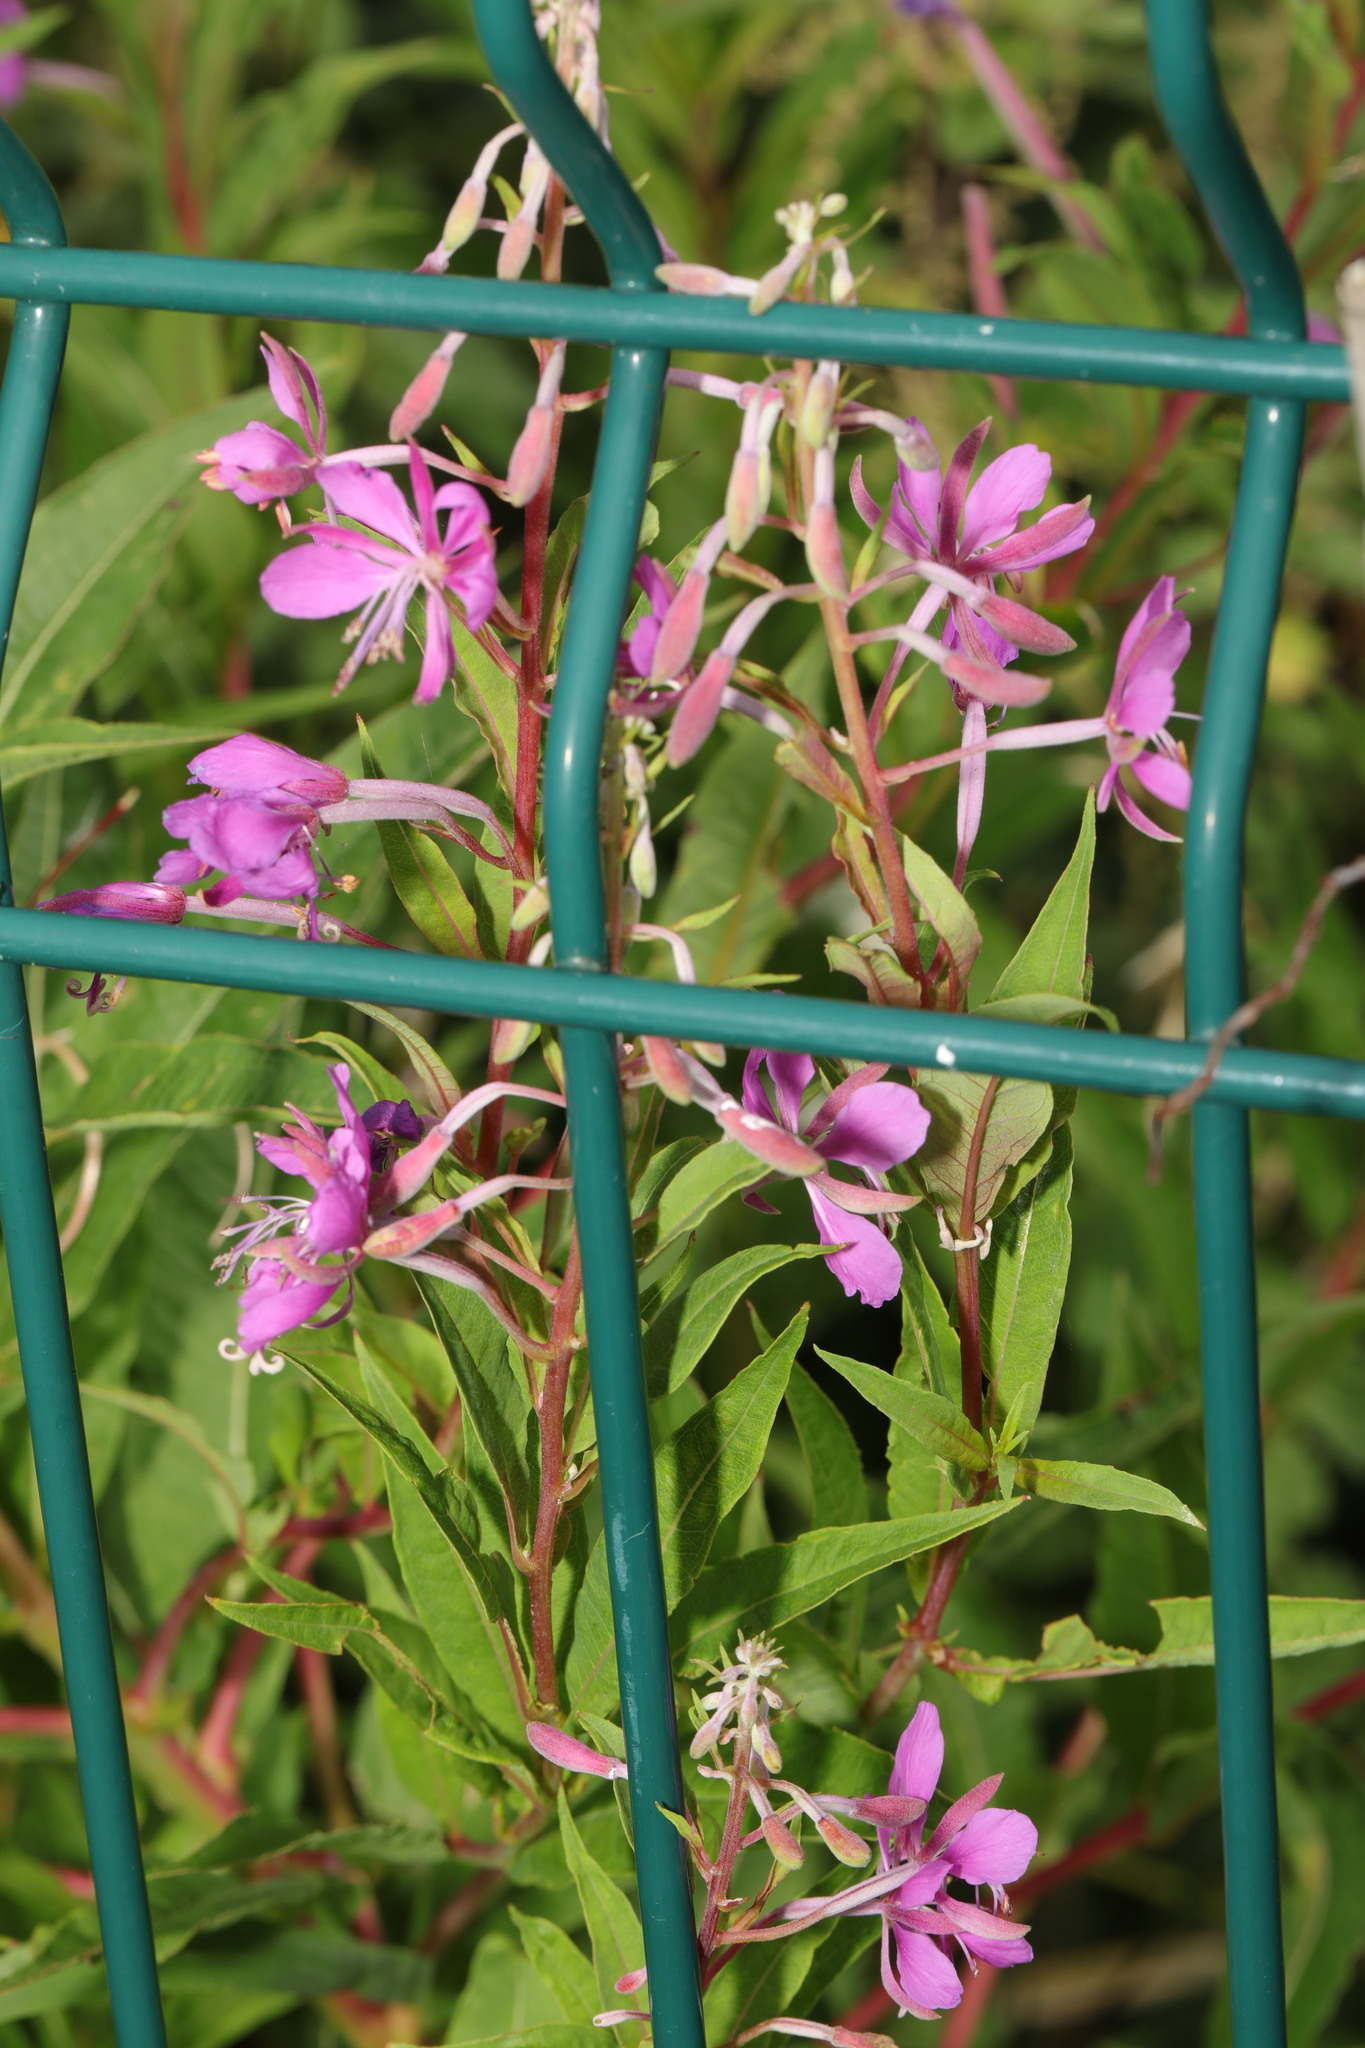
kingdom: Plantae
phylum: Tracheophyta
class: Magnoliopsida
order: Myrtales
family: Onagraceae
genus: Chamaenerion
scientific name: Chamaenerion angustifolium
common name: Fireweed
